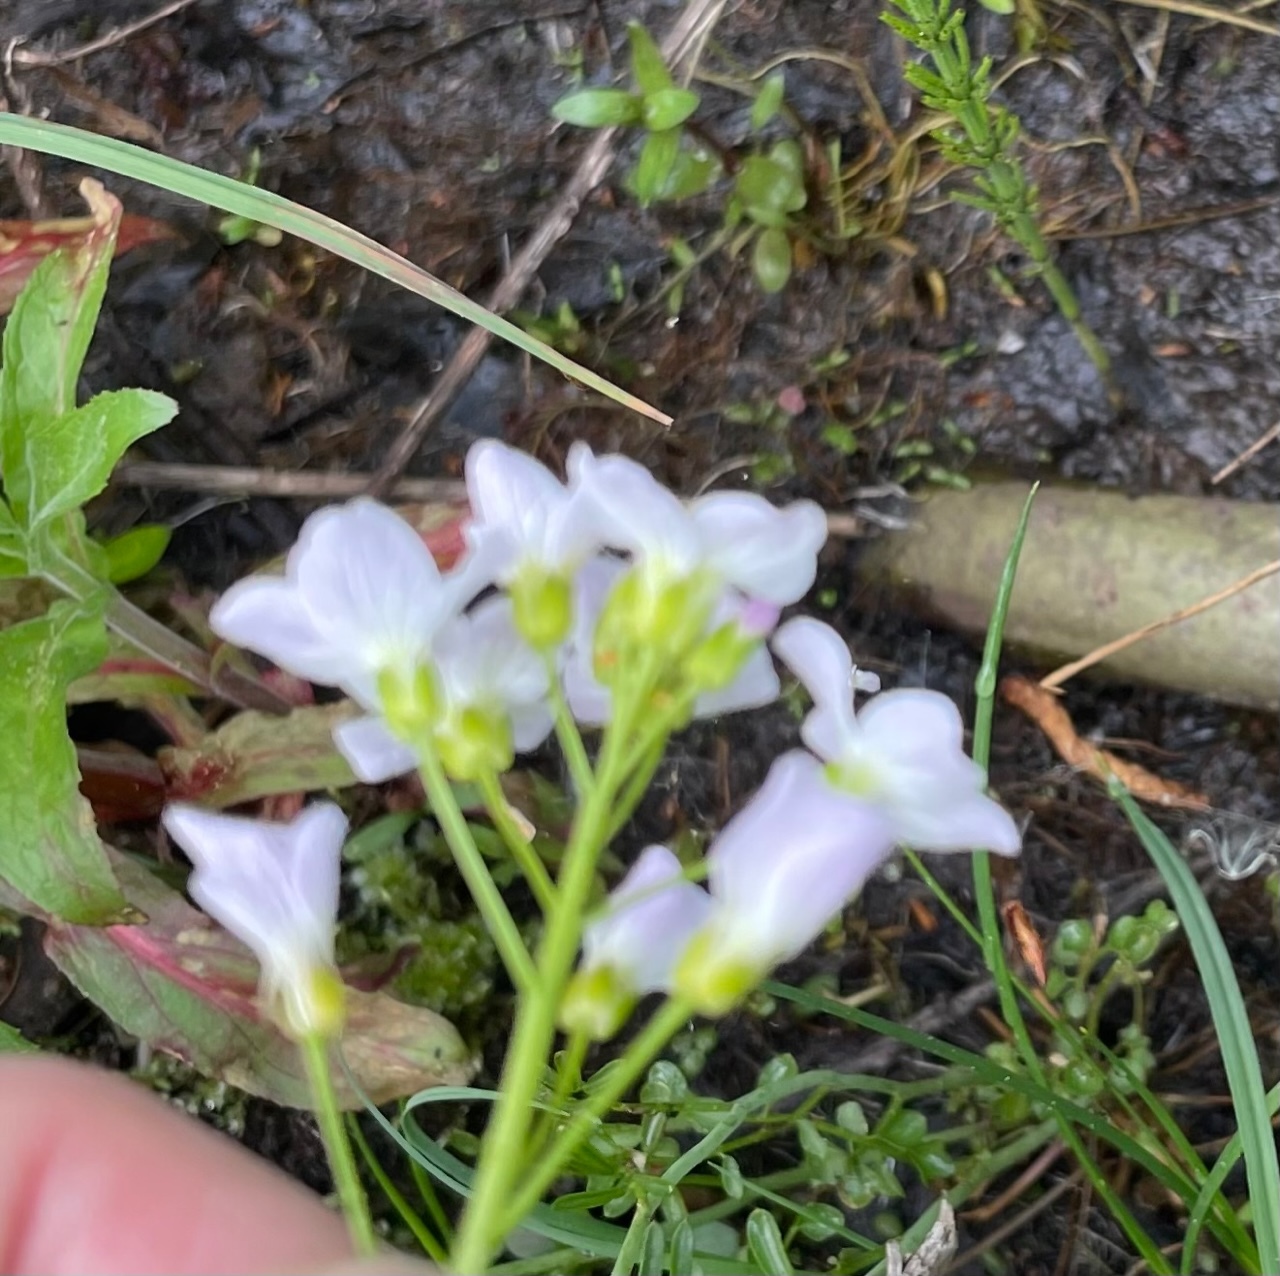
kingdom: Plantae
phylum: Tracheophyta
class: Magnoliopsida
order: Brassicales
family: Brassicaceae
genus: Cardamine
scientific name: Cardamine dentata
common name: Toothed bittercress
